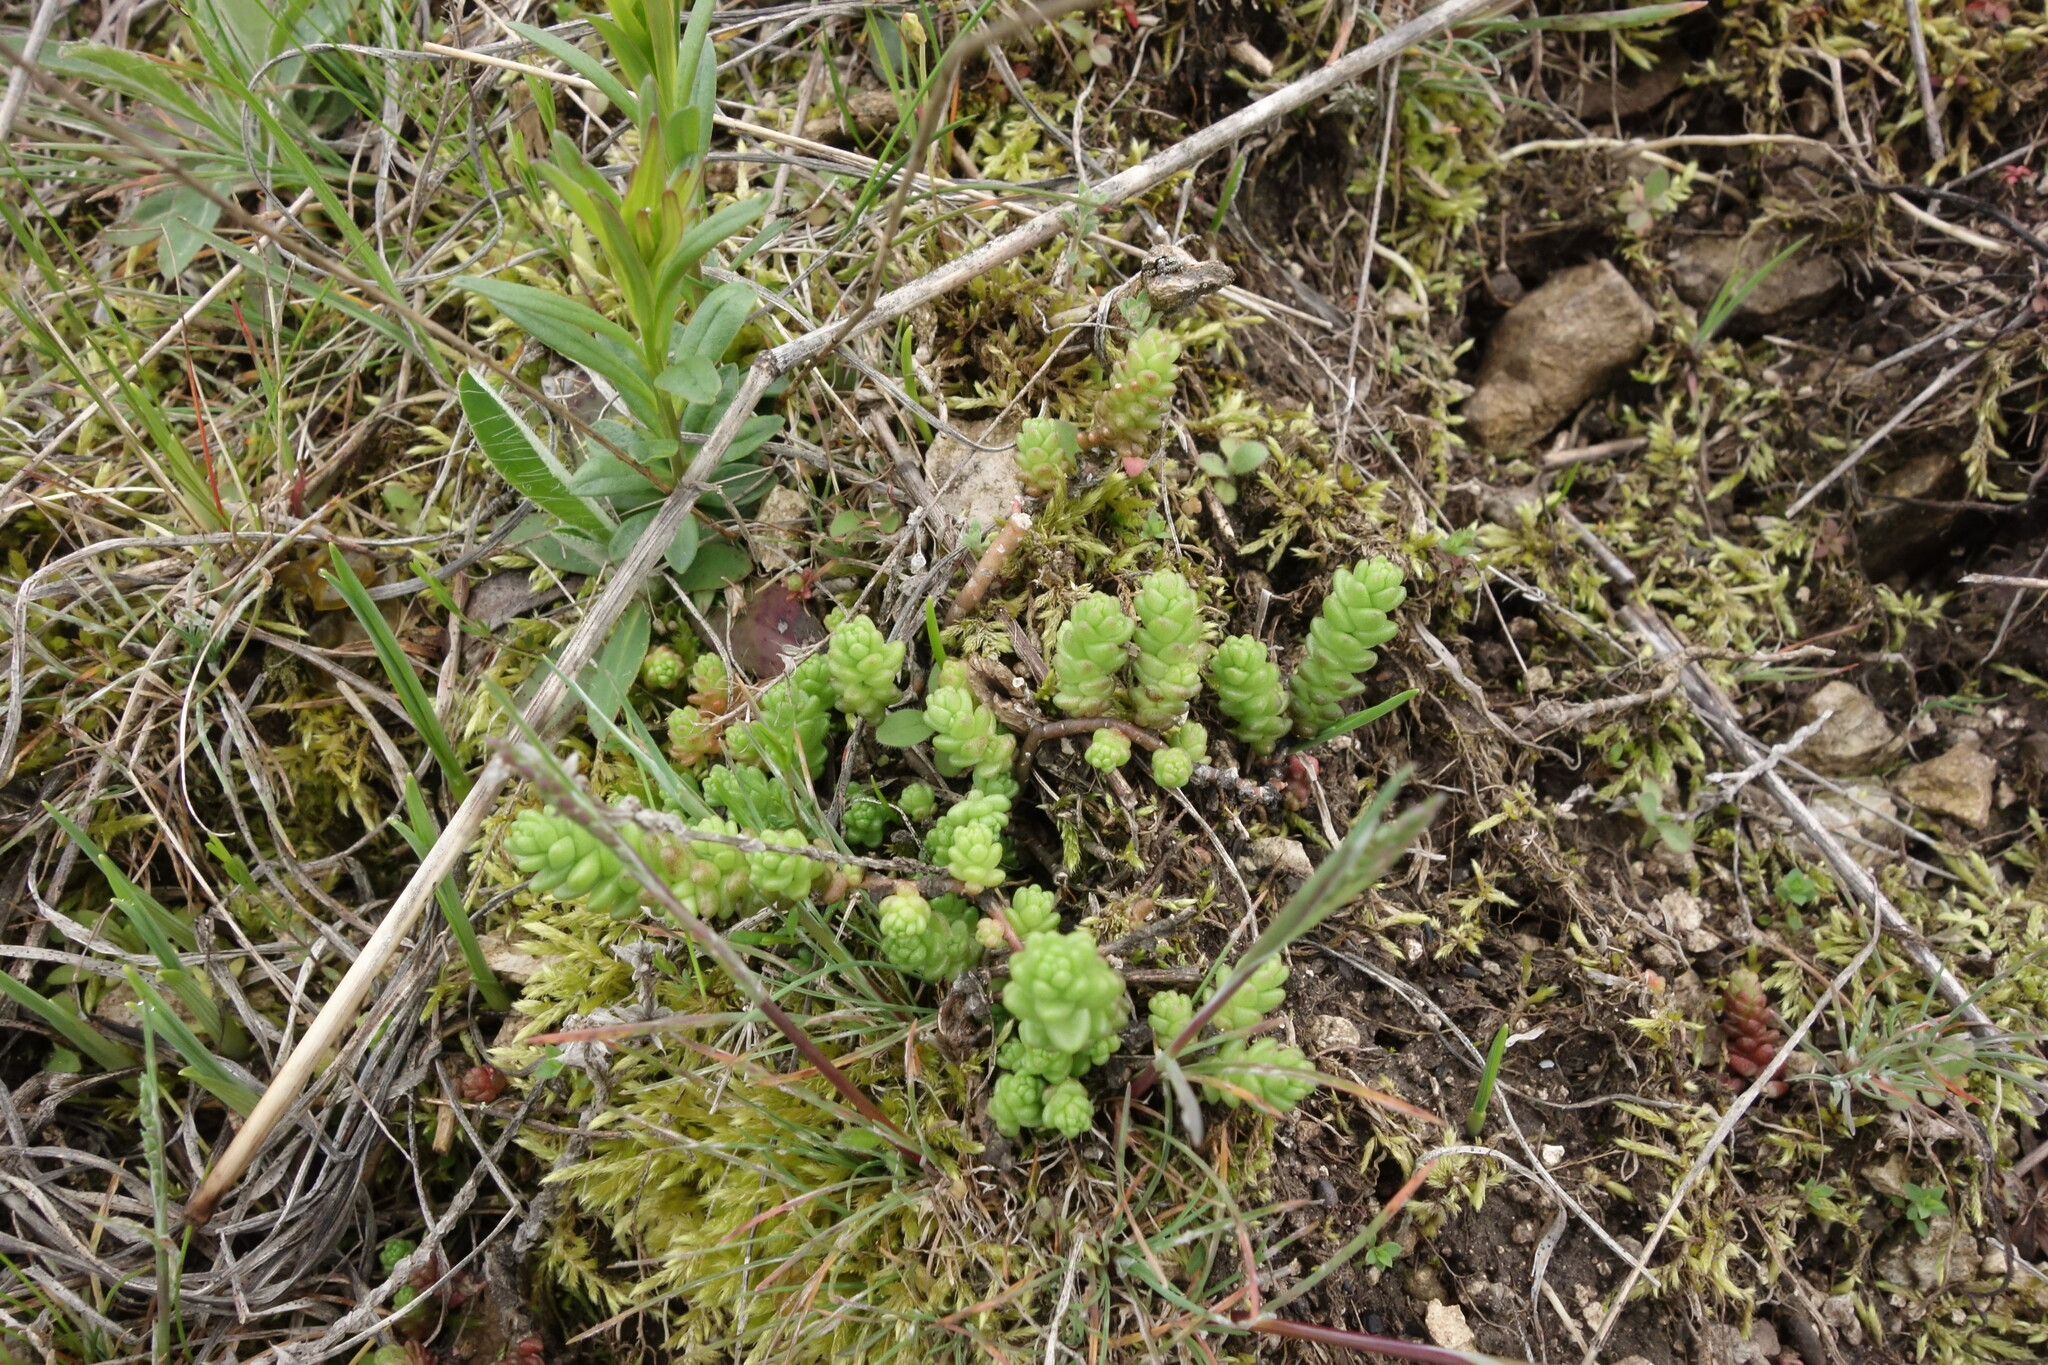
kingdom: Plantae
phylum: Tracheophyta
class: Magnoliopsida
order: Saxifragales
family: Crassulaceae
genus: Sedum
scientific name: Sedum acre
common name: Biting stonecrop
